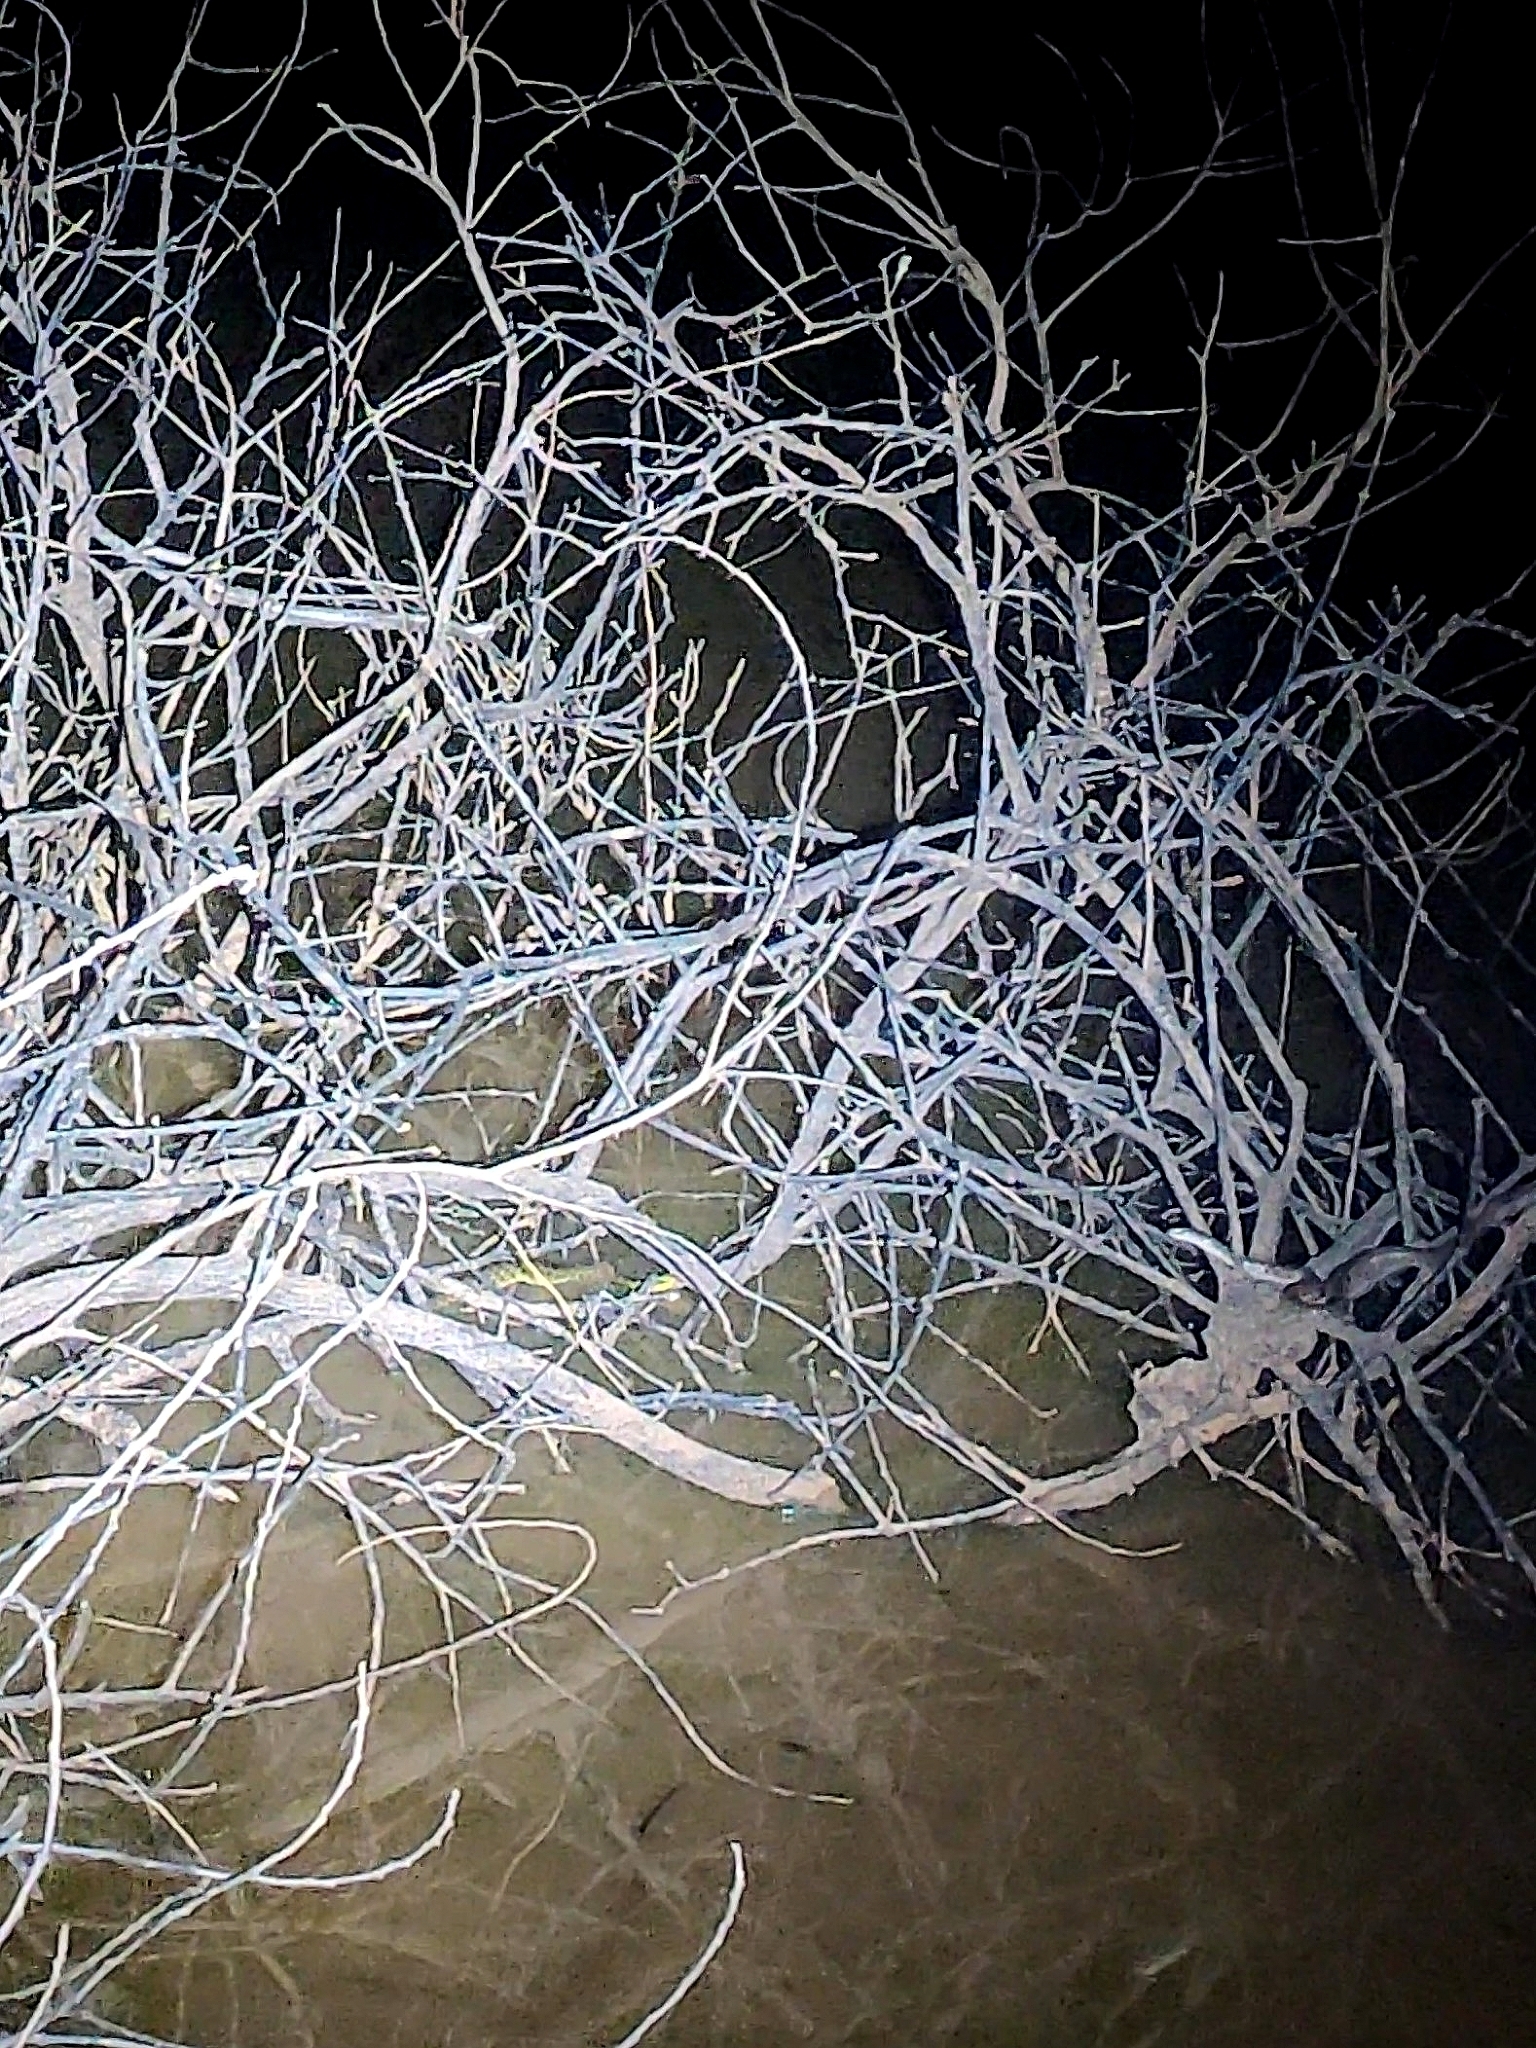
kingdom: Animalia
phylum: Chordata
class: Squamata
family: Colubridae
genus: Fowlea
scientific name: Fowlea piscator
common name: Asiatic water snake
